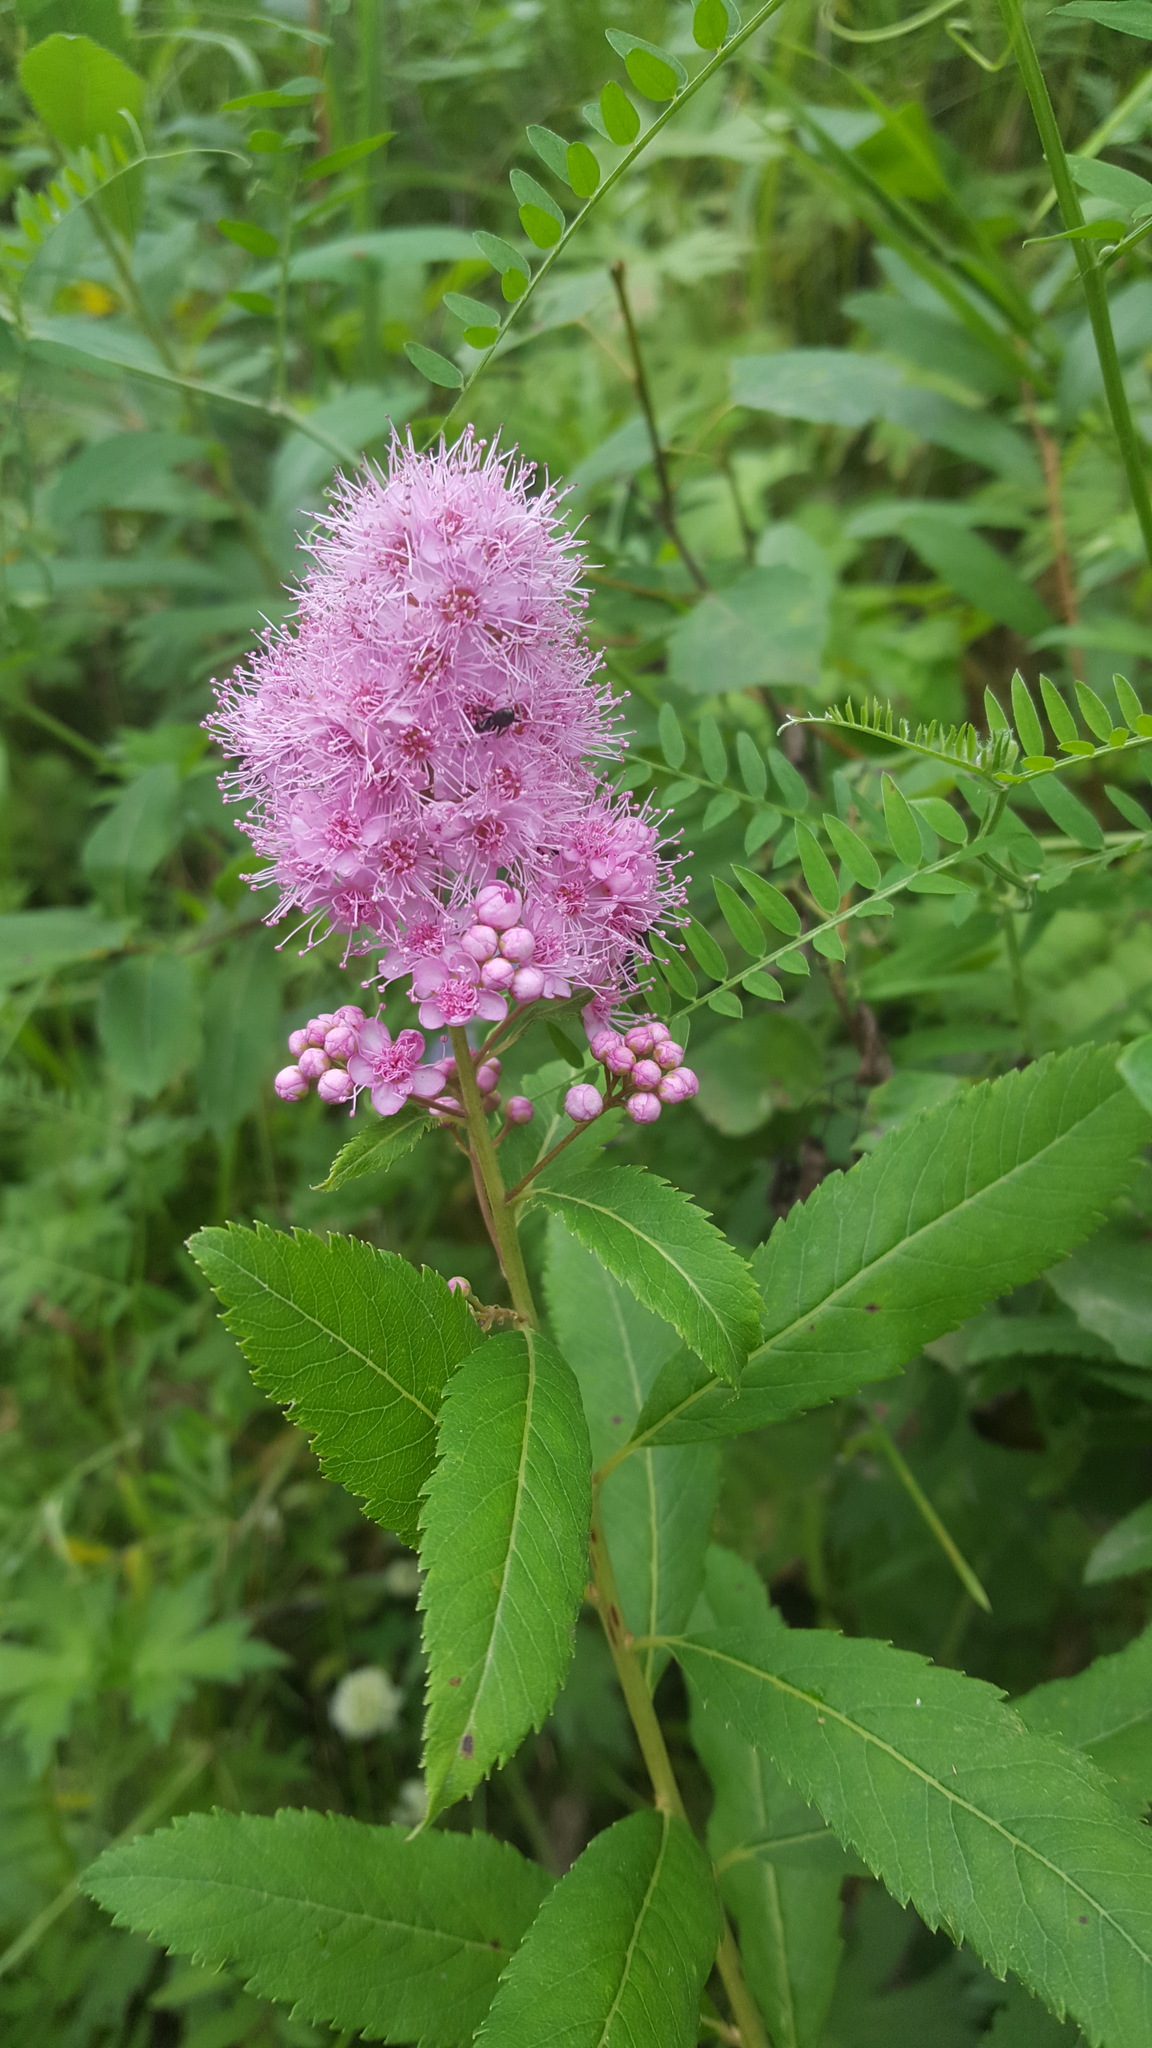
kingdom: Plantae
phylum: Tracheophyta
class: Magnoliopsida
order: Rosales
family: Rosaceae
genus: Spiraea
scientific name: Spiraea salicifolia
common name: Bridewort
